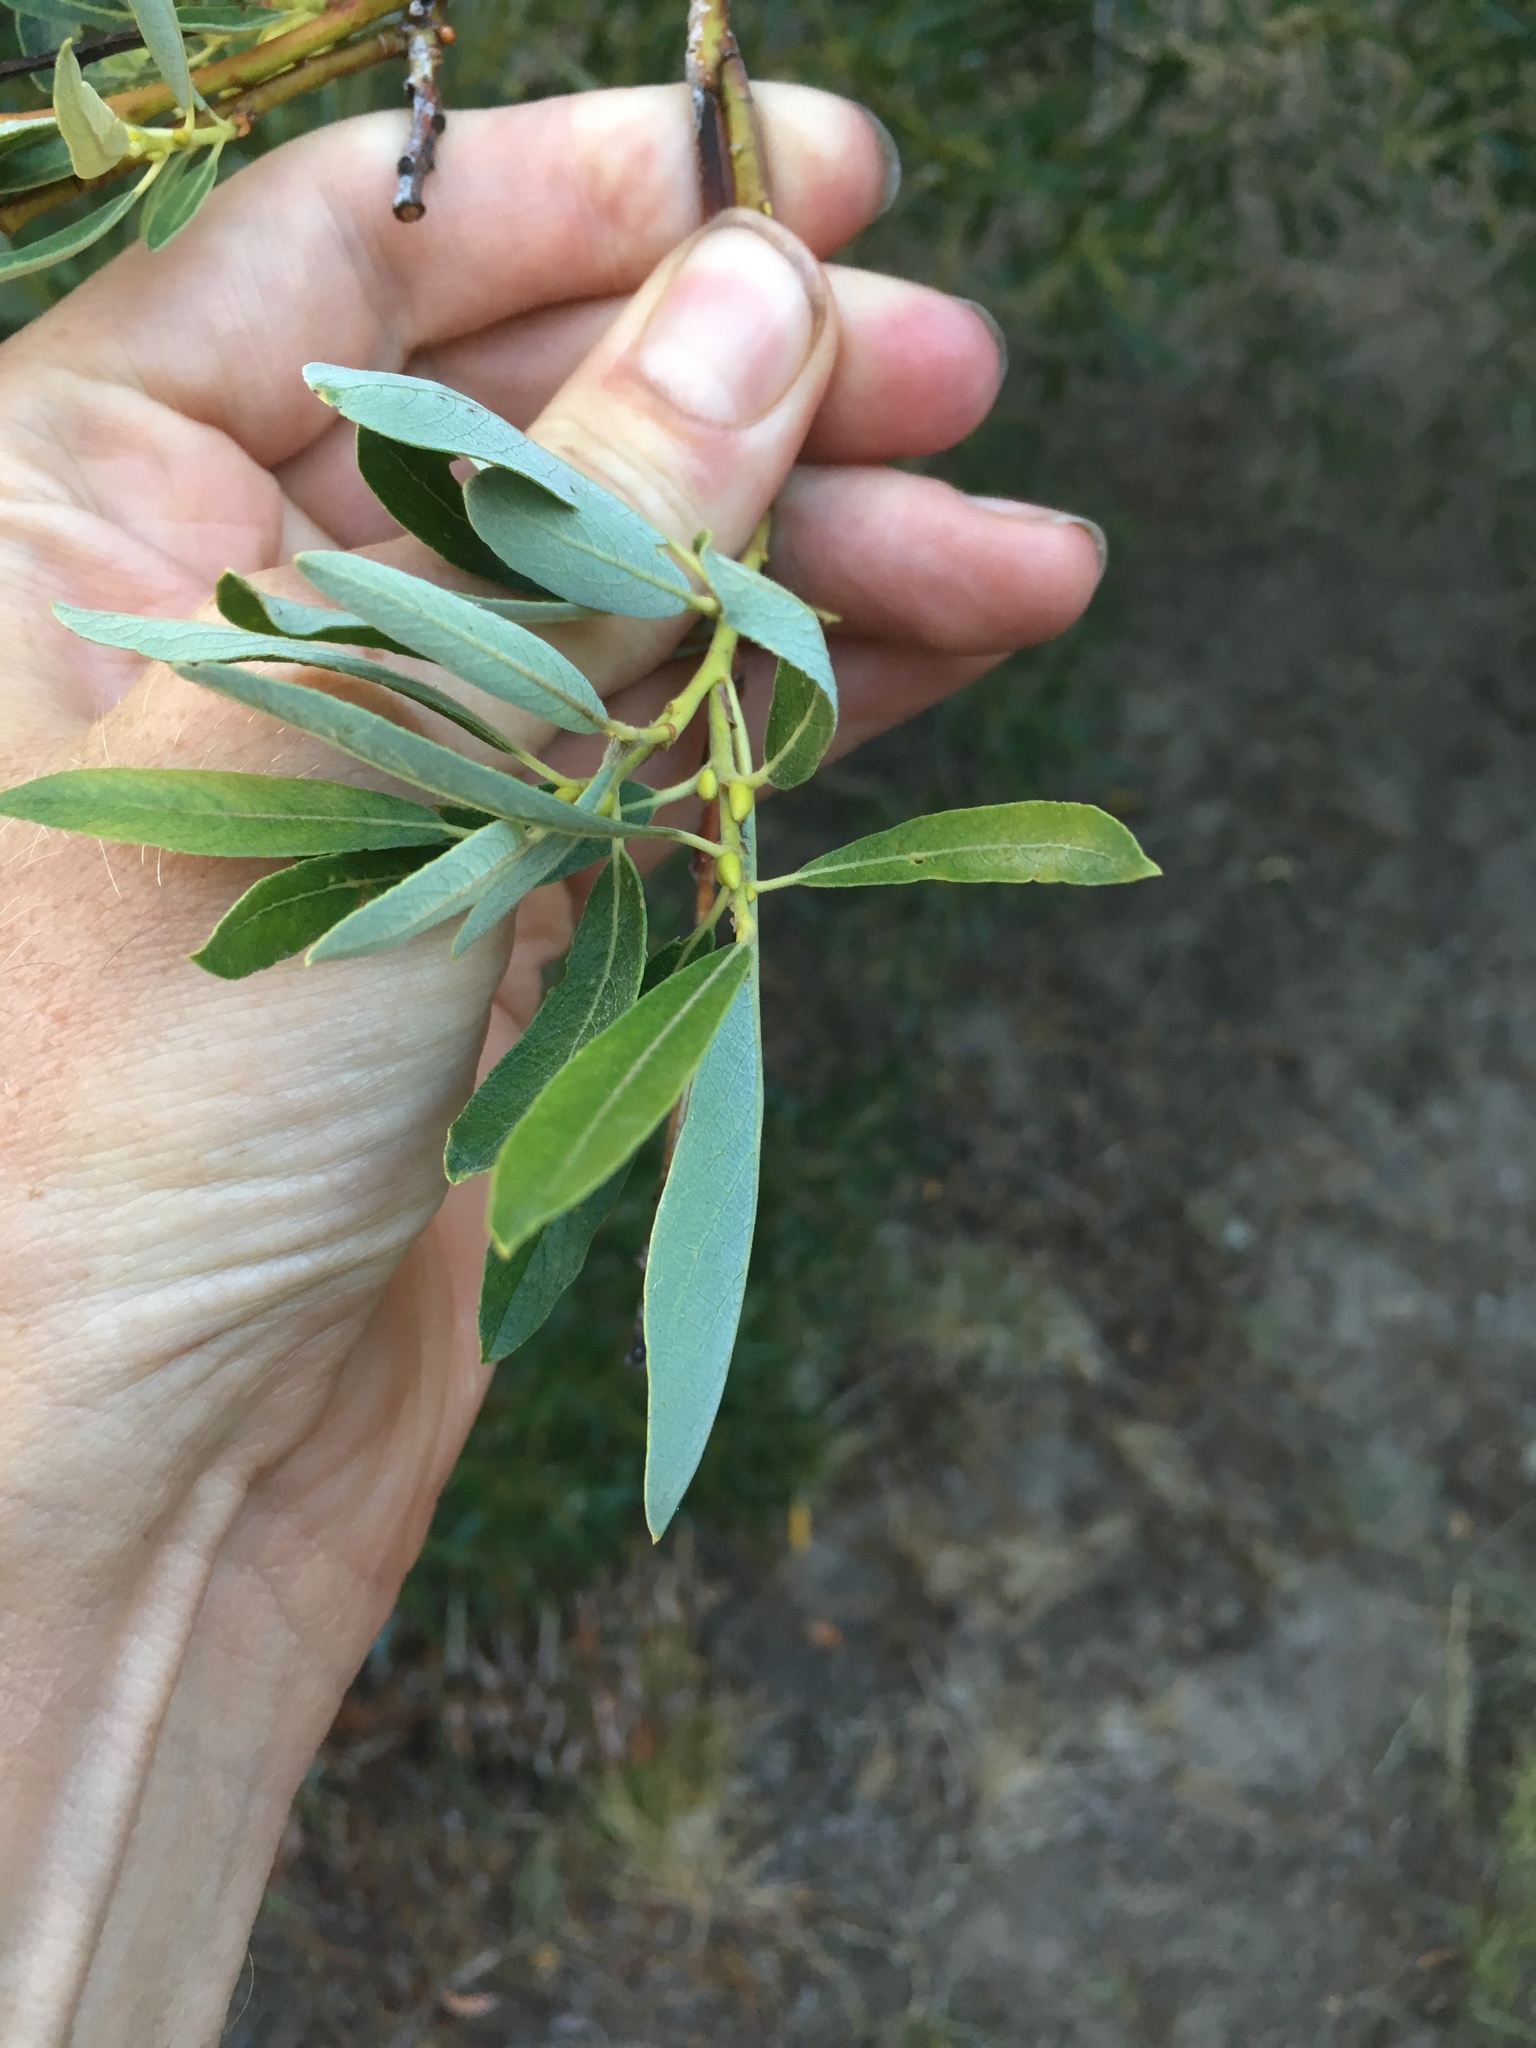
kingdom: Plantae
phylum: Tracheophyta
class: Magnoliopsida
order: Malpighiales
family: Salicaceae
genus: Salix
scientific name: Salix lasiolepis
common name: Arroyo willow
